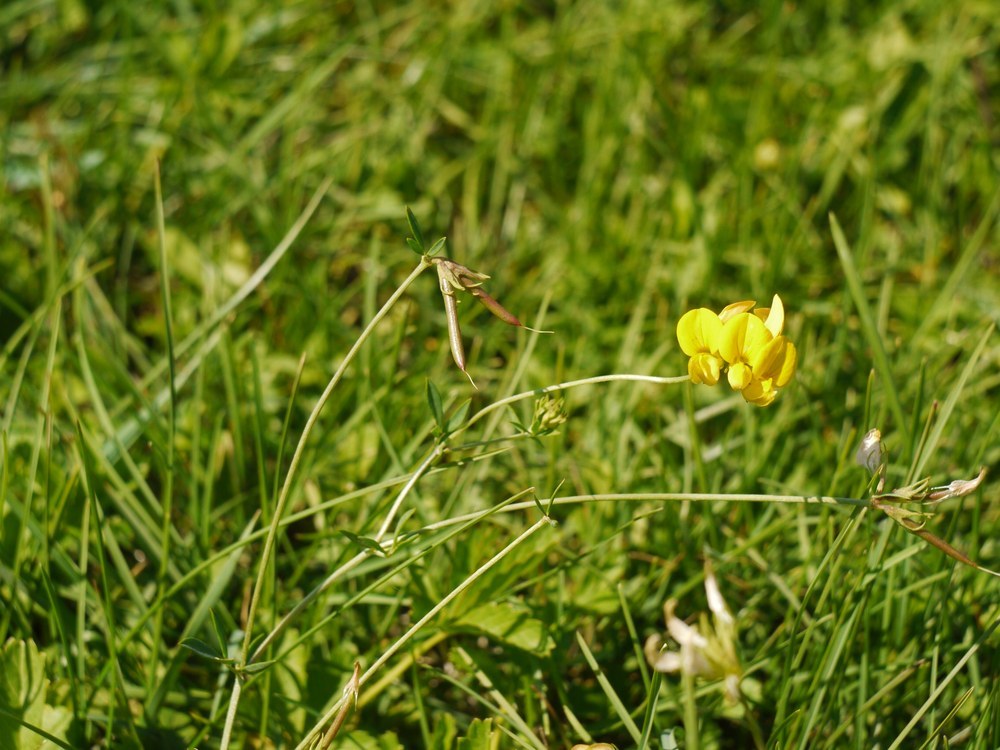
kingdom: Plantae
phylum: Tracheophyta
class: Magnoliopsida
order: Fabales
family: Fabaceae
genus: Lotus
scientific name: Lotus corniculatus
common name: Common bird's-foot-trefoil
